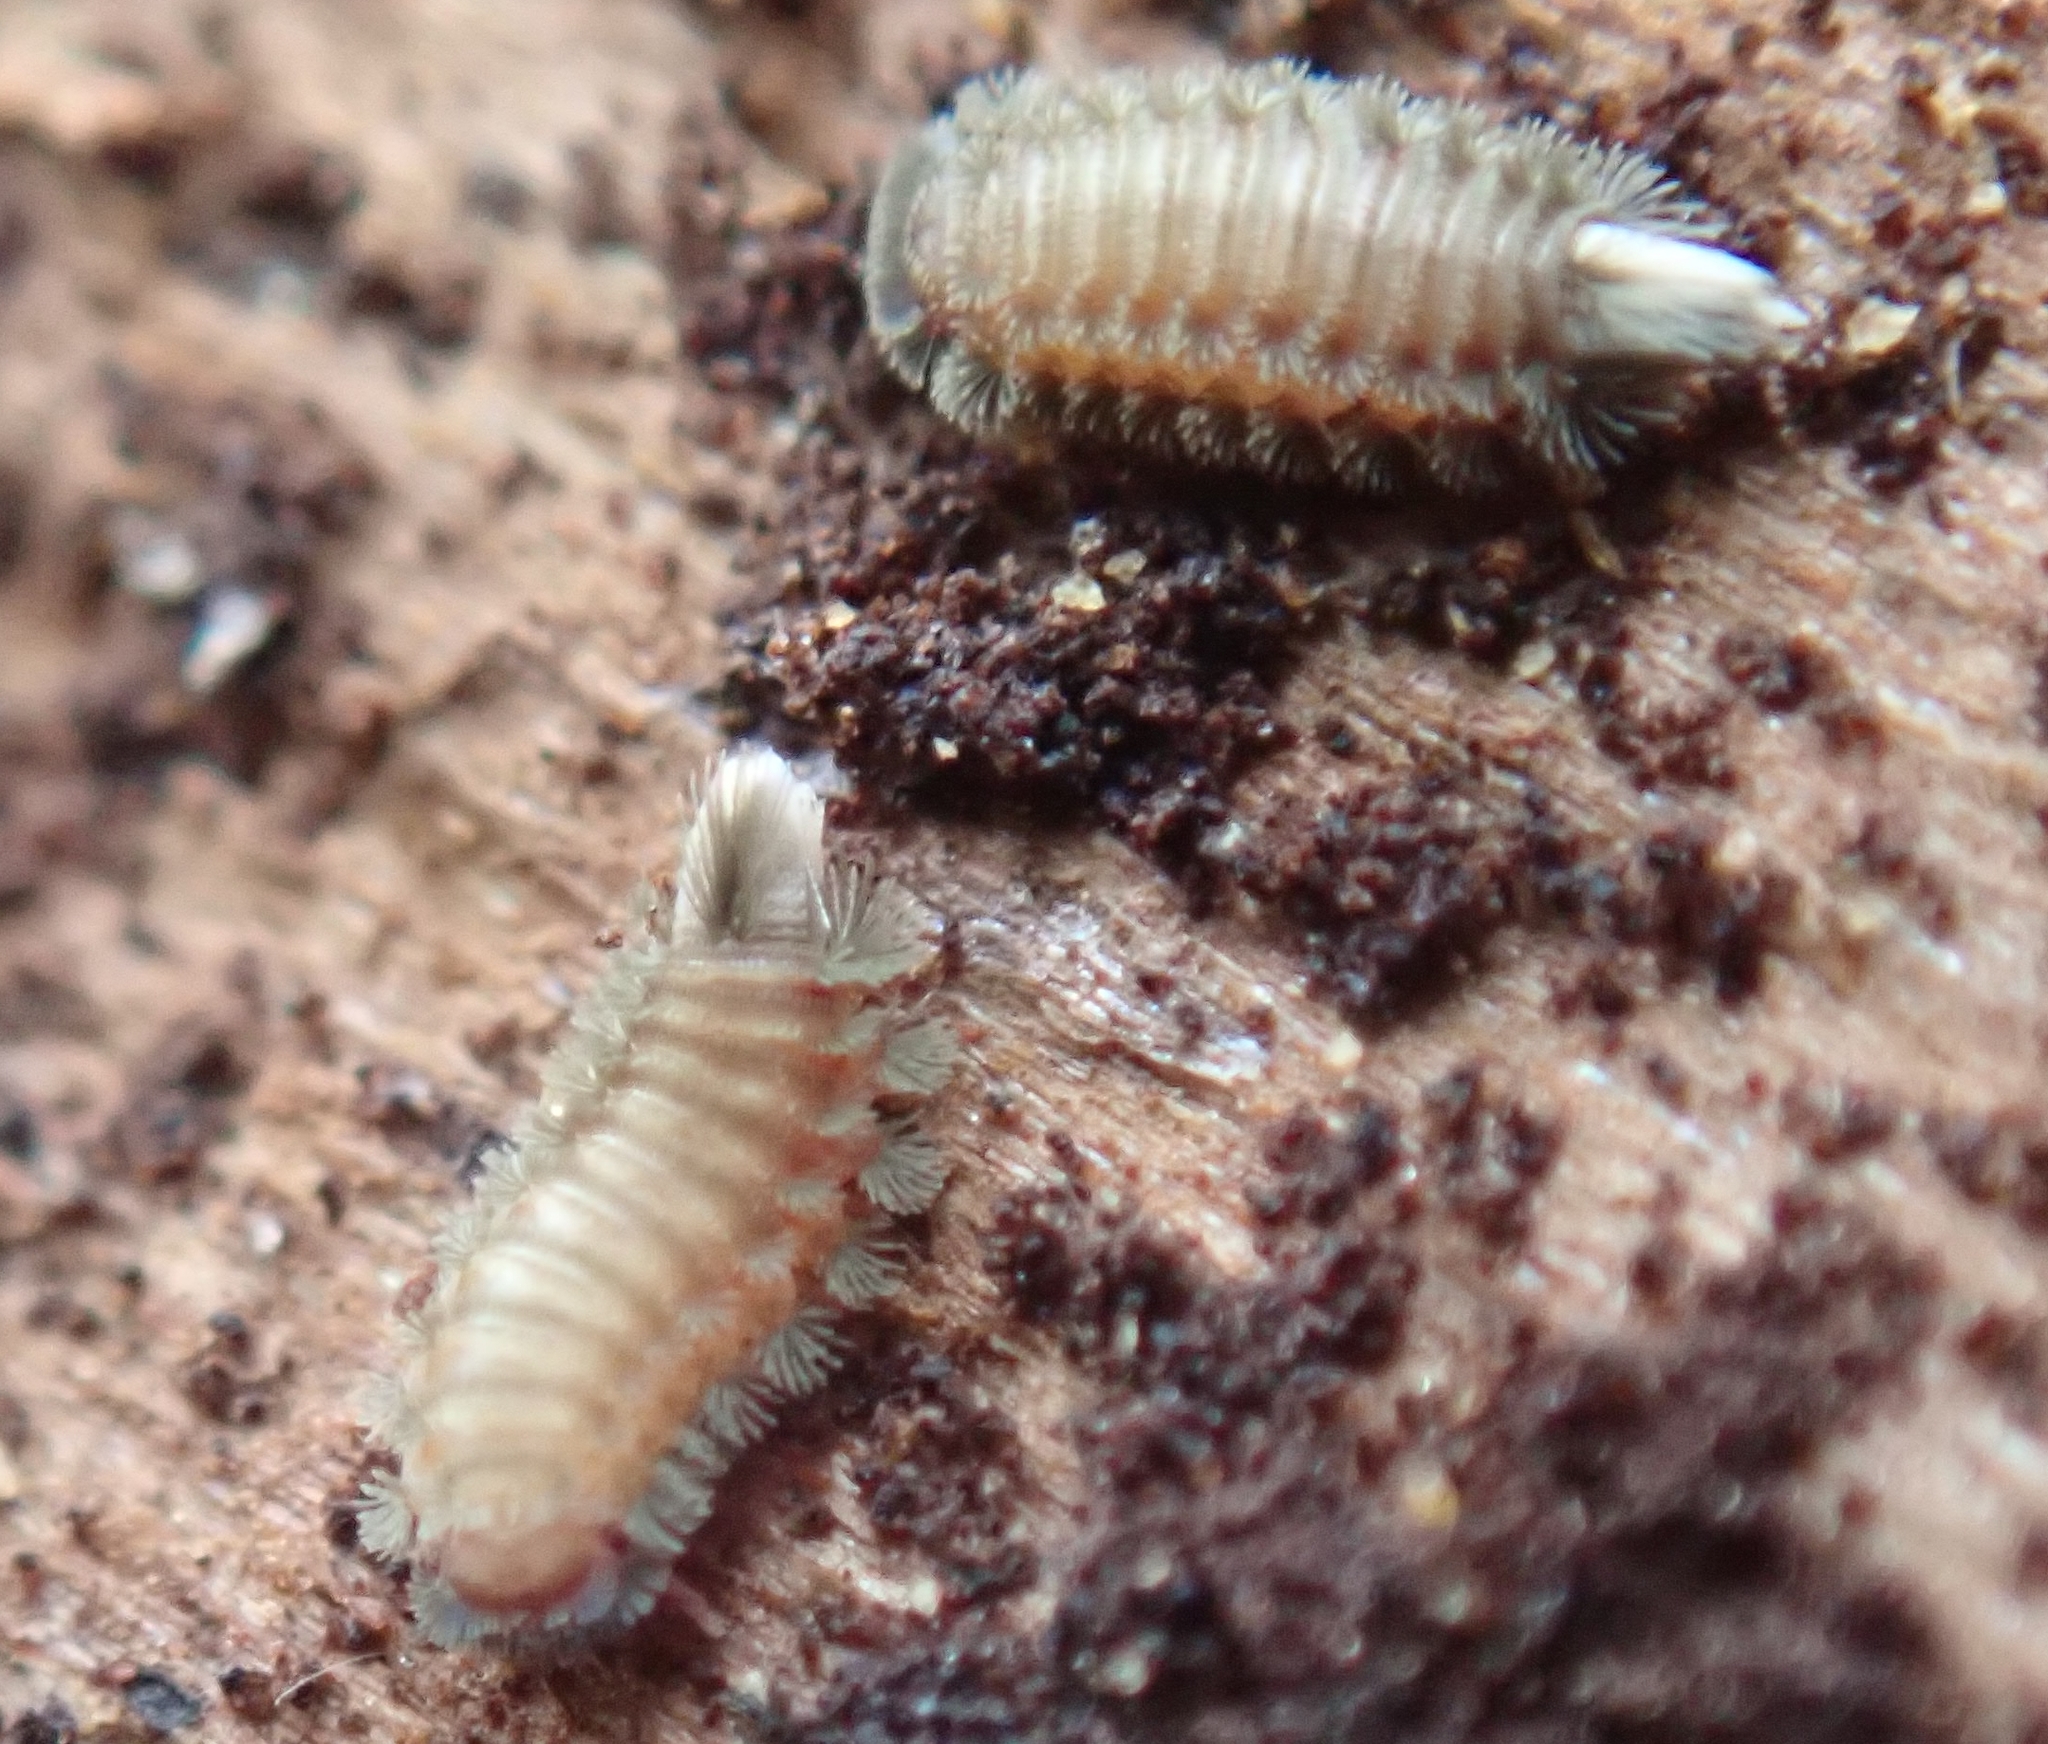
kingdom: Animalia
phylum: Arthropoda
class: Diplopoda
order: Polyxenida
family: Polyxenidae
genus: Polyxenus
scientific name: Polyxenus lagurus
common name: Bristly millipede
